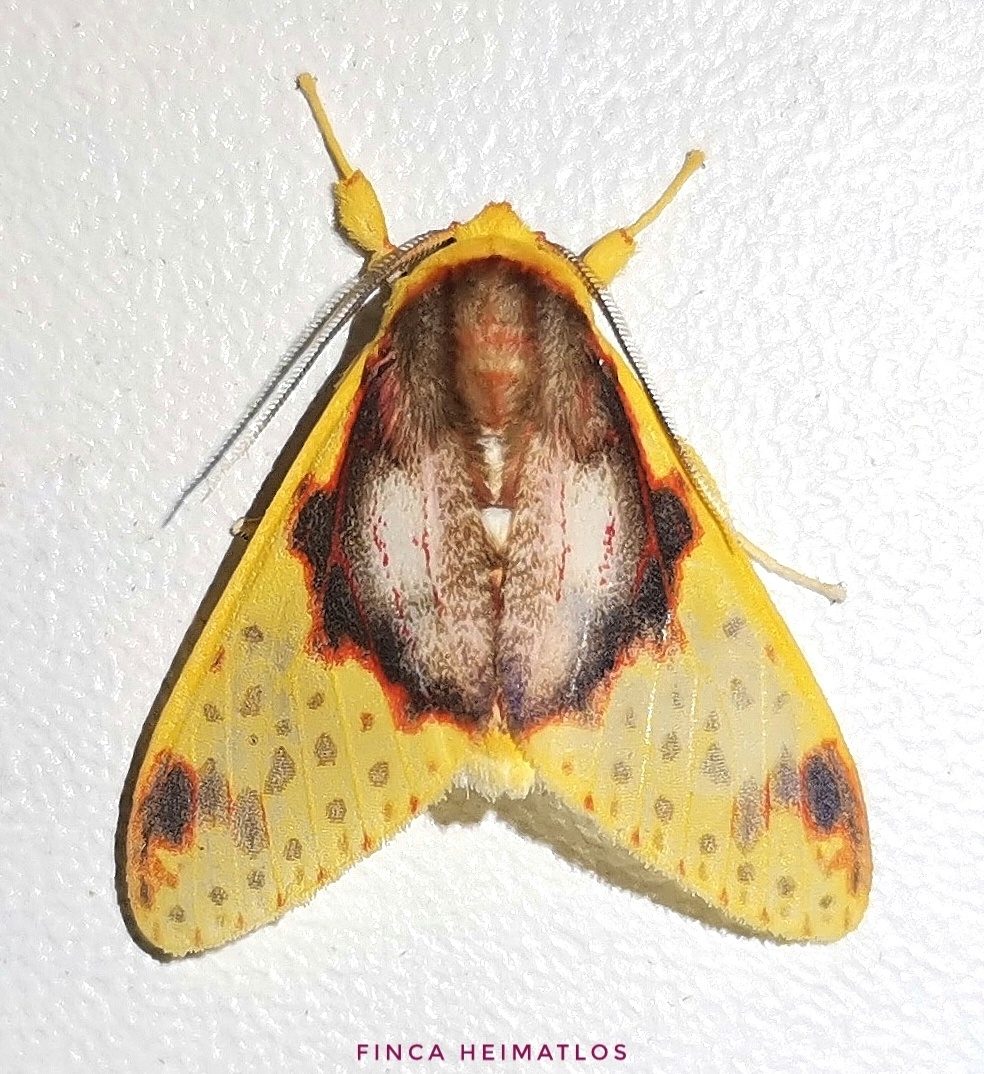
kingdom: Animalia
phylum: Arthropoda
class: Insecta
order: Lepidoptera
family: Erebidae
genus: Amaxia
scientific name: Amaxia flavicollis
